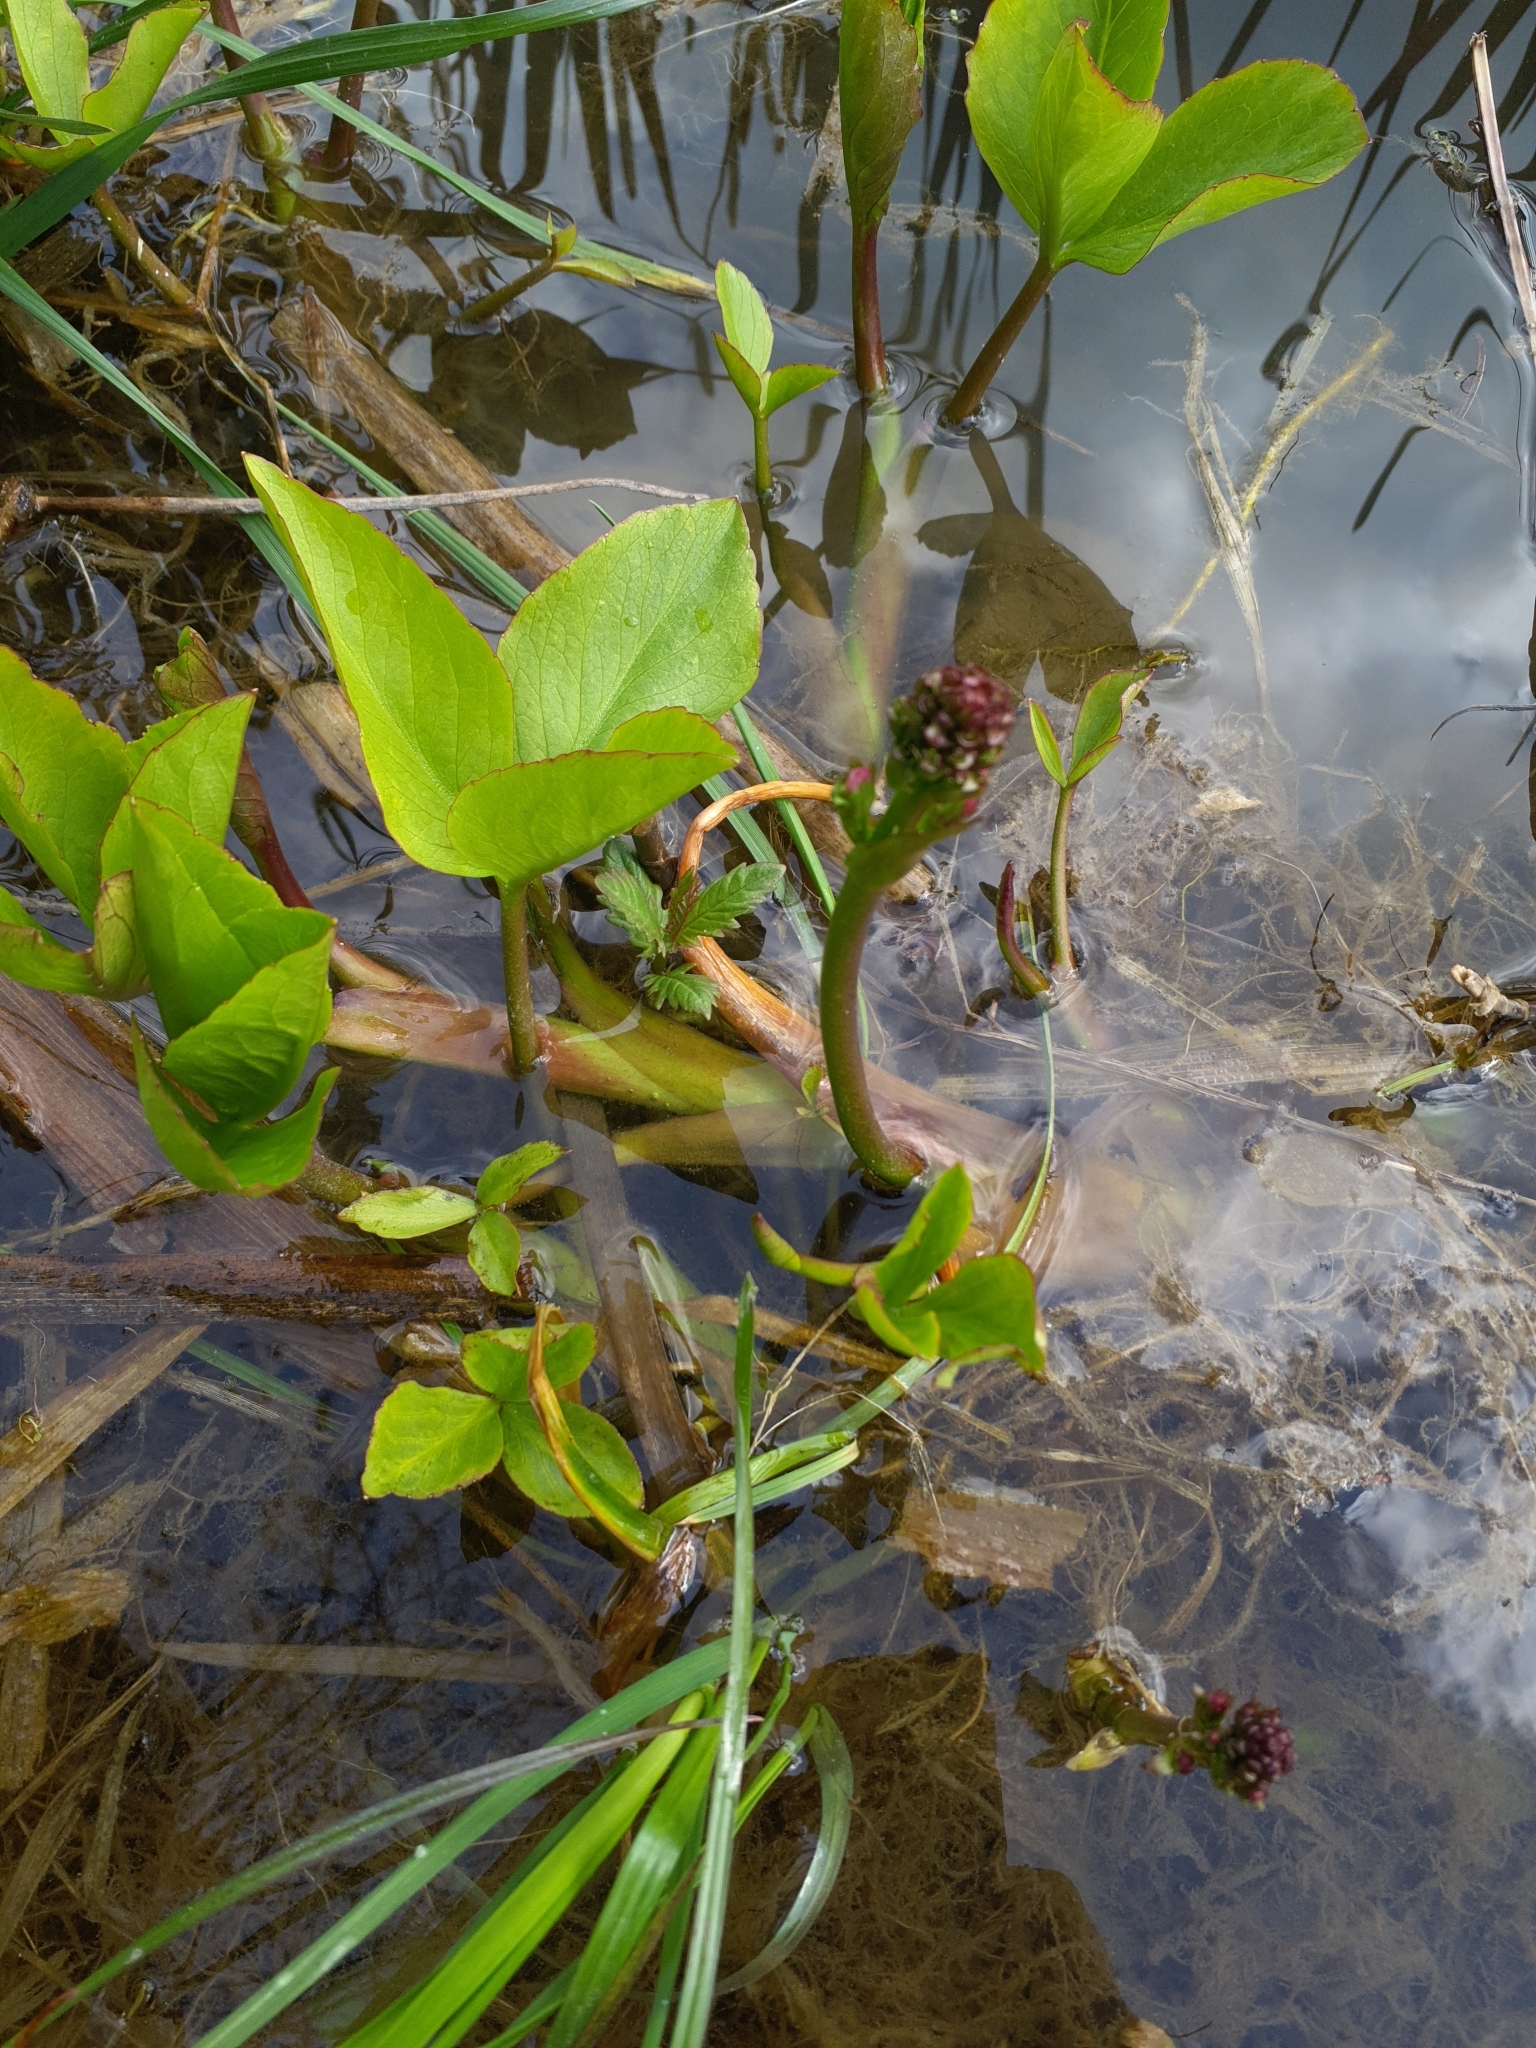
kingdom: Plantae
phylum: Tracheophyta
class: Magnoliopsida
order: Asterales
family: Menyanthaceae
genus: Menyanthes
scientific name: Menyanthes trifoliata
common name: Bogbean
